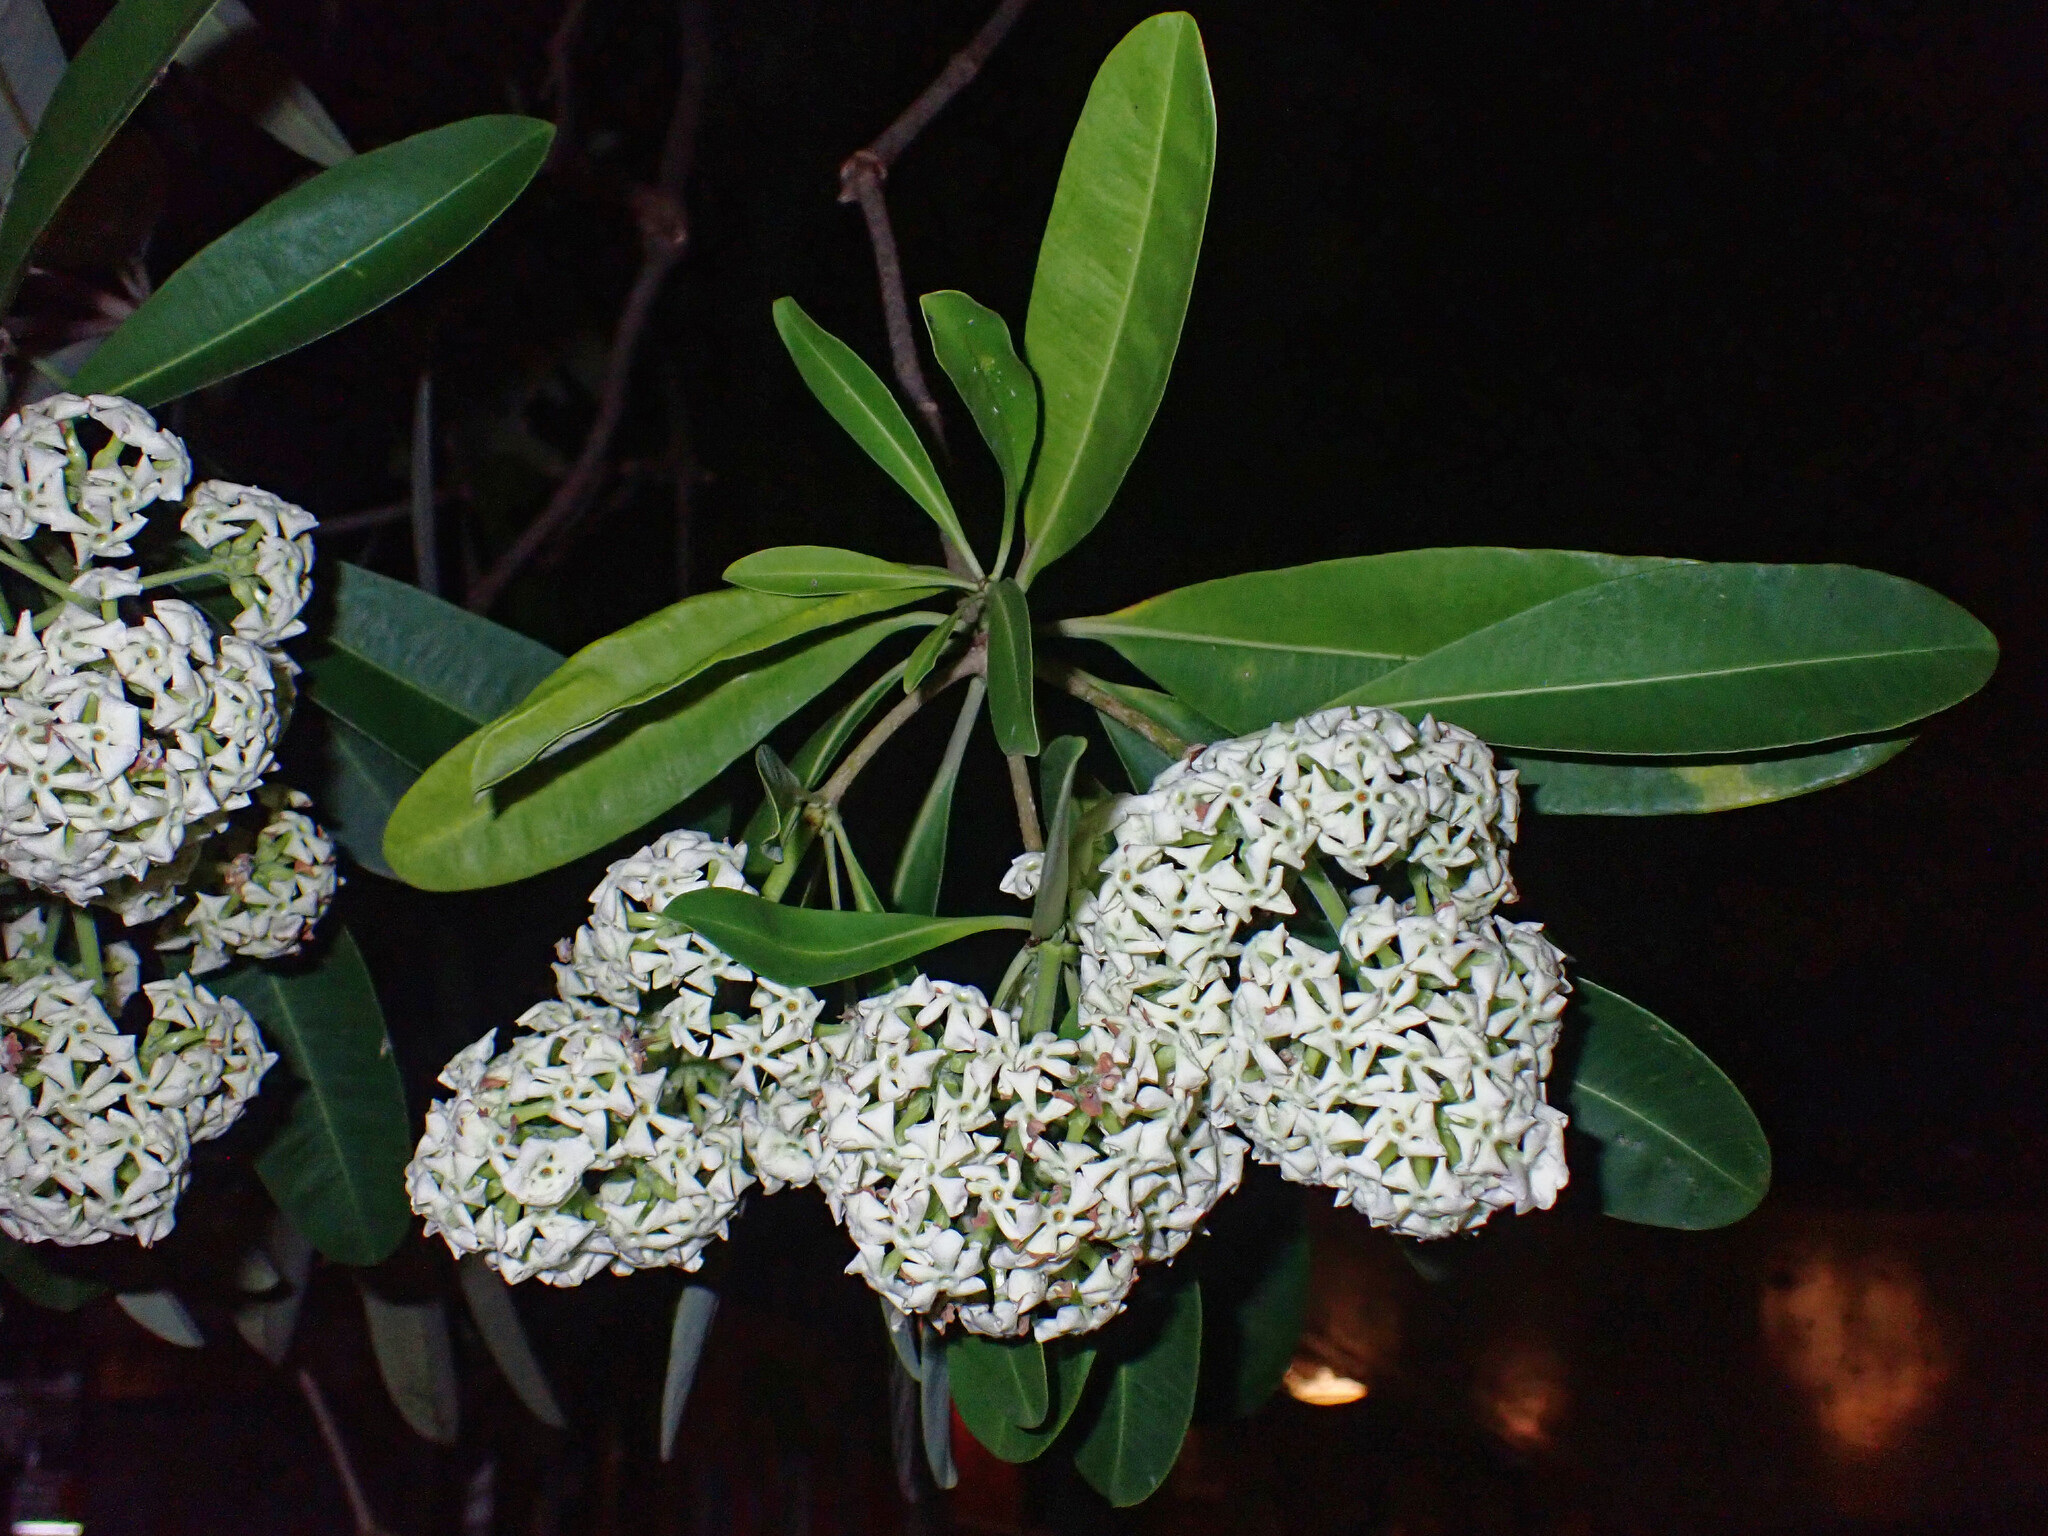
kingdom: Plantae
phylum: Tracheophyta
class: Magnoliopsida
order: Gentianales
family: Apocynaceae
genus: Alstonia
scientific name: Alstonia scholaris
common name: White cheesewood
